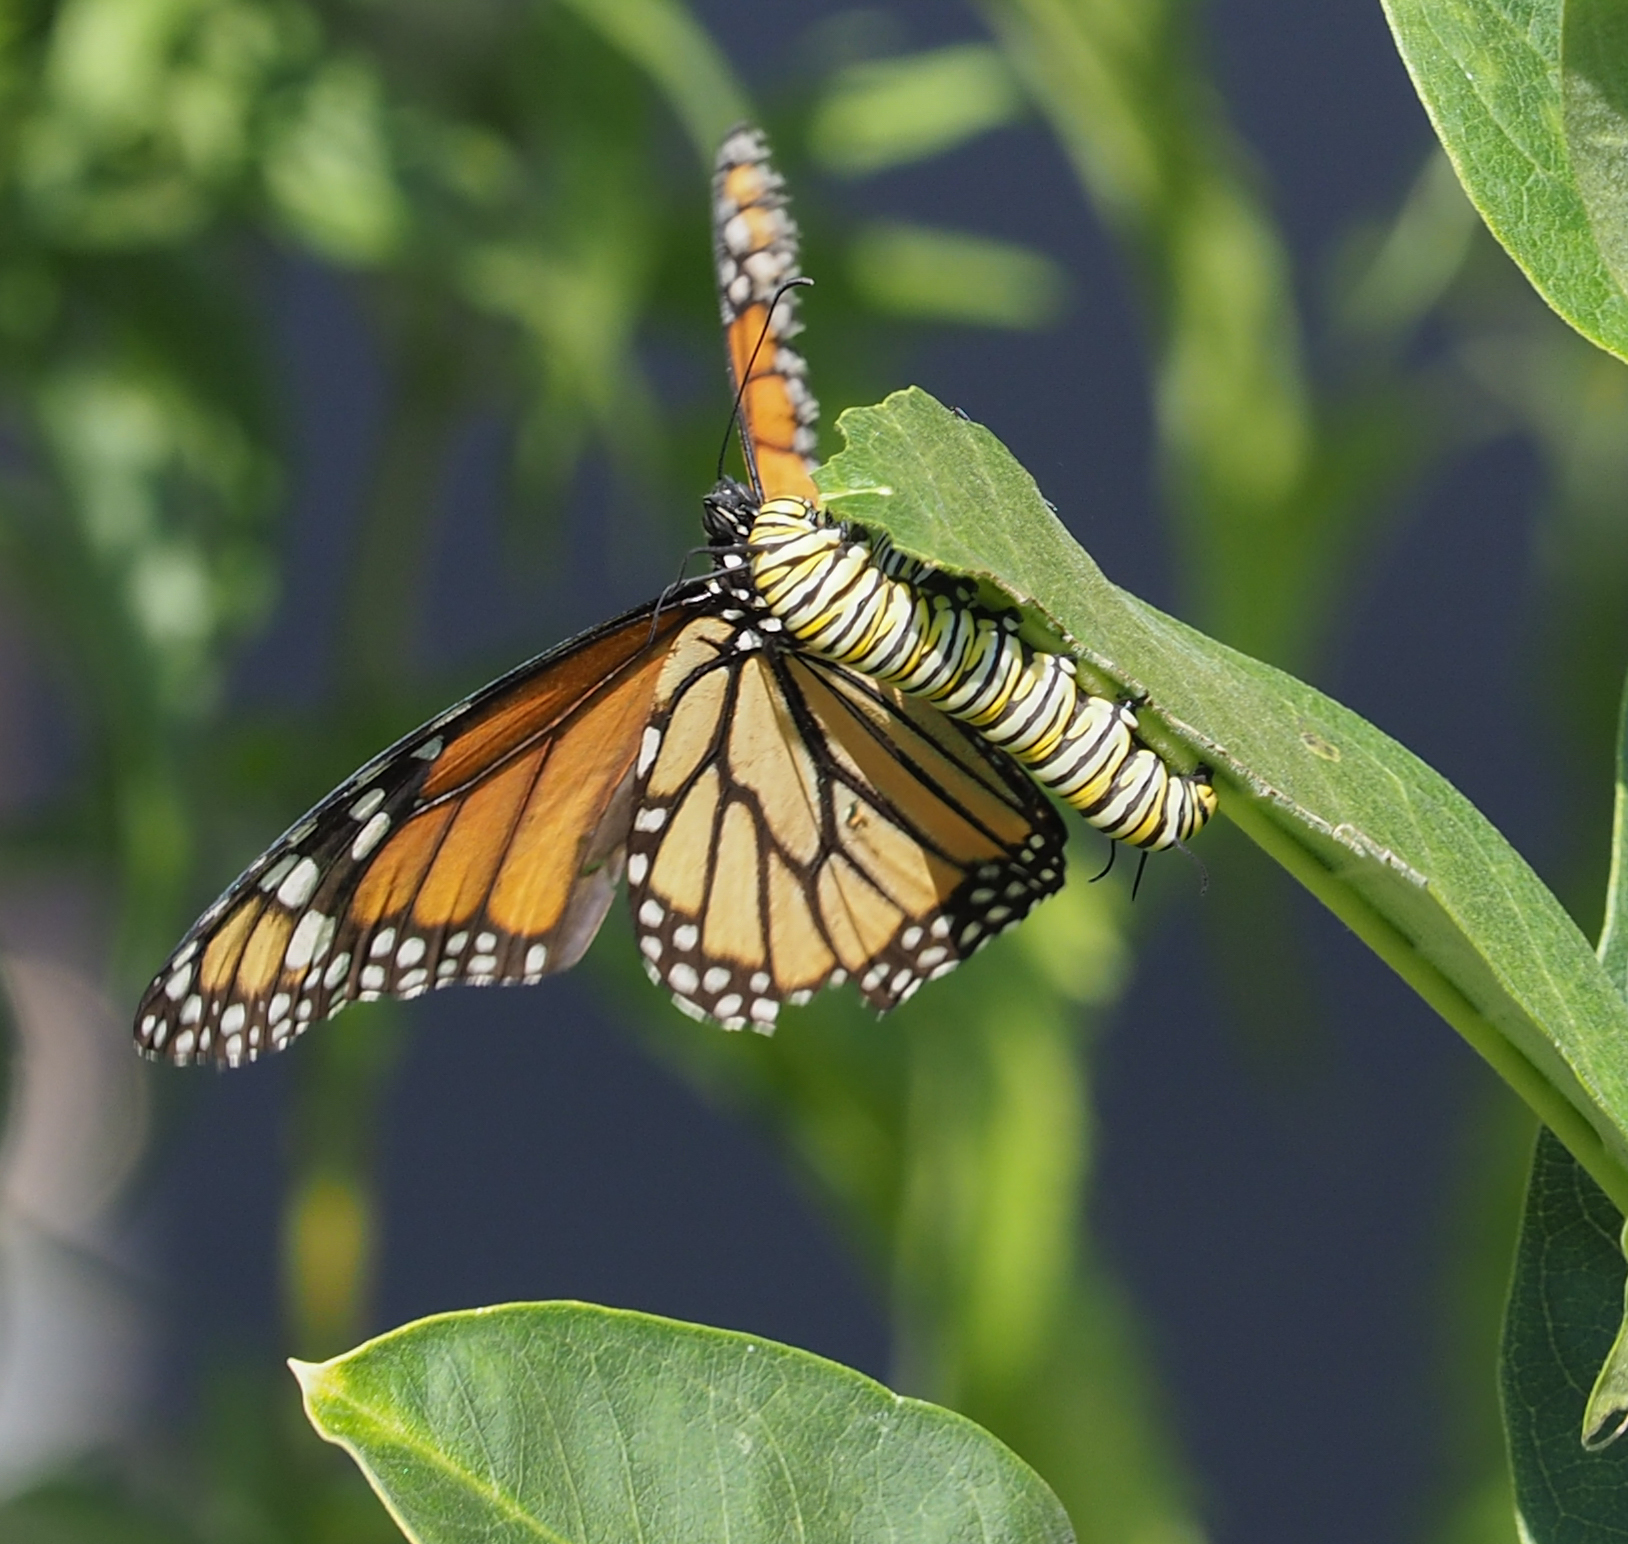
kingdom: Animalia
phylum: Arthropoda
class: Insecta
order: Lepidoptera
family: Nymphalidae
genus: Danaus
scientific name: Danaus plexippus
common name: Monarch
